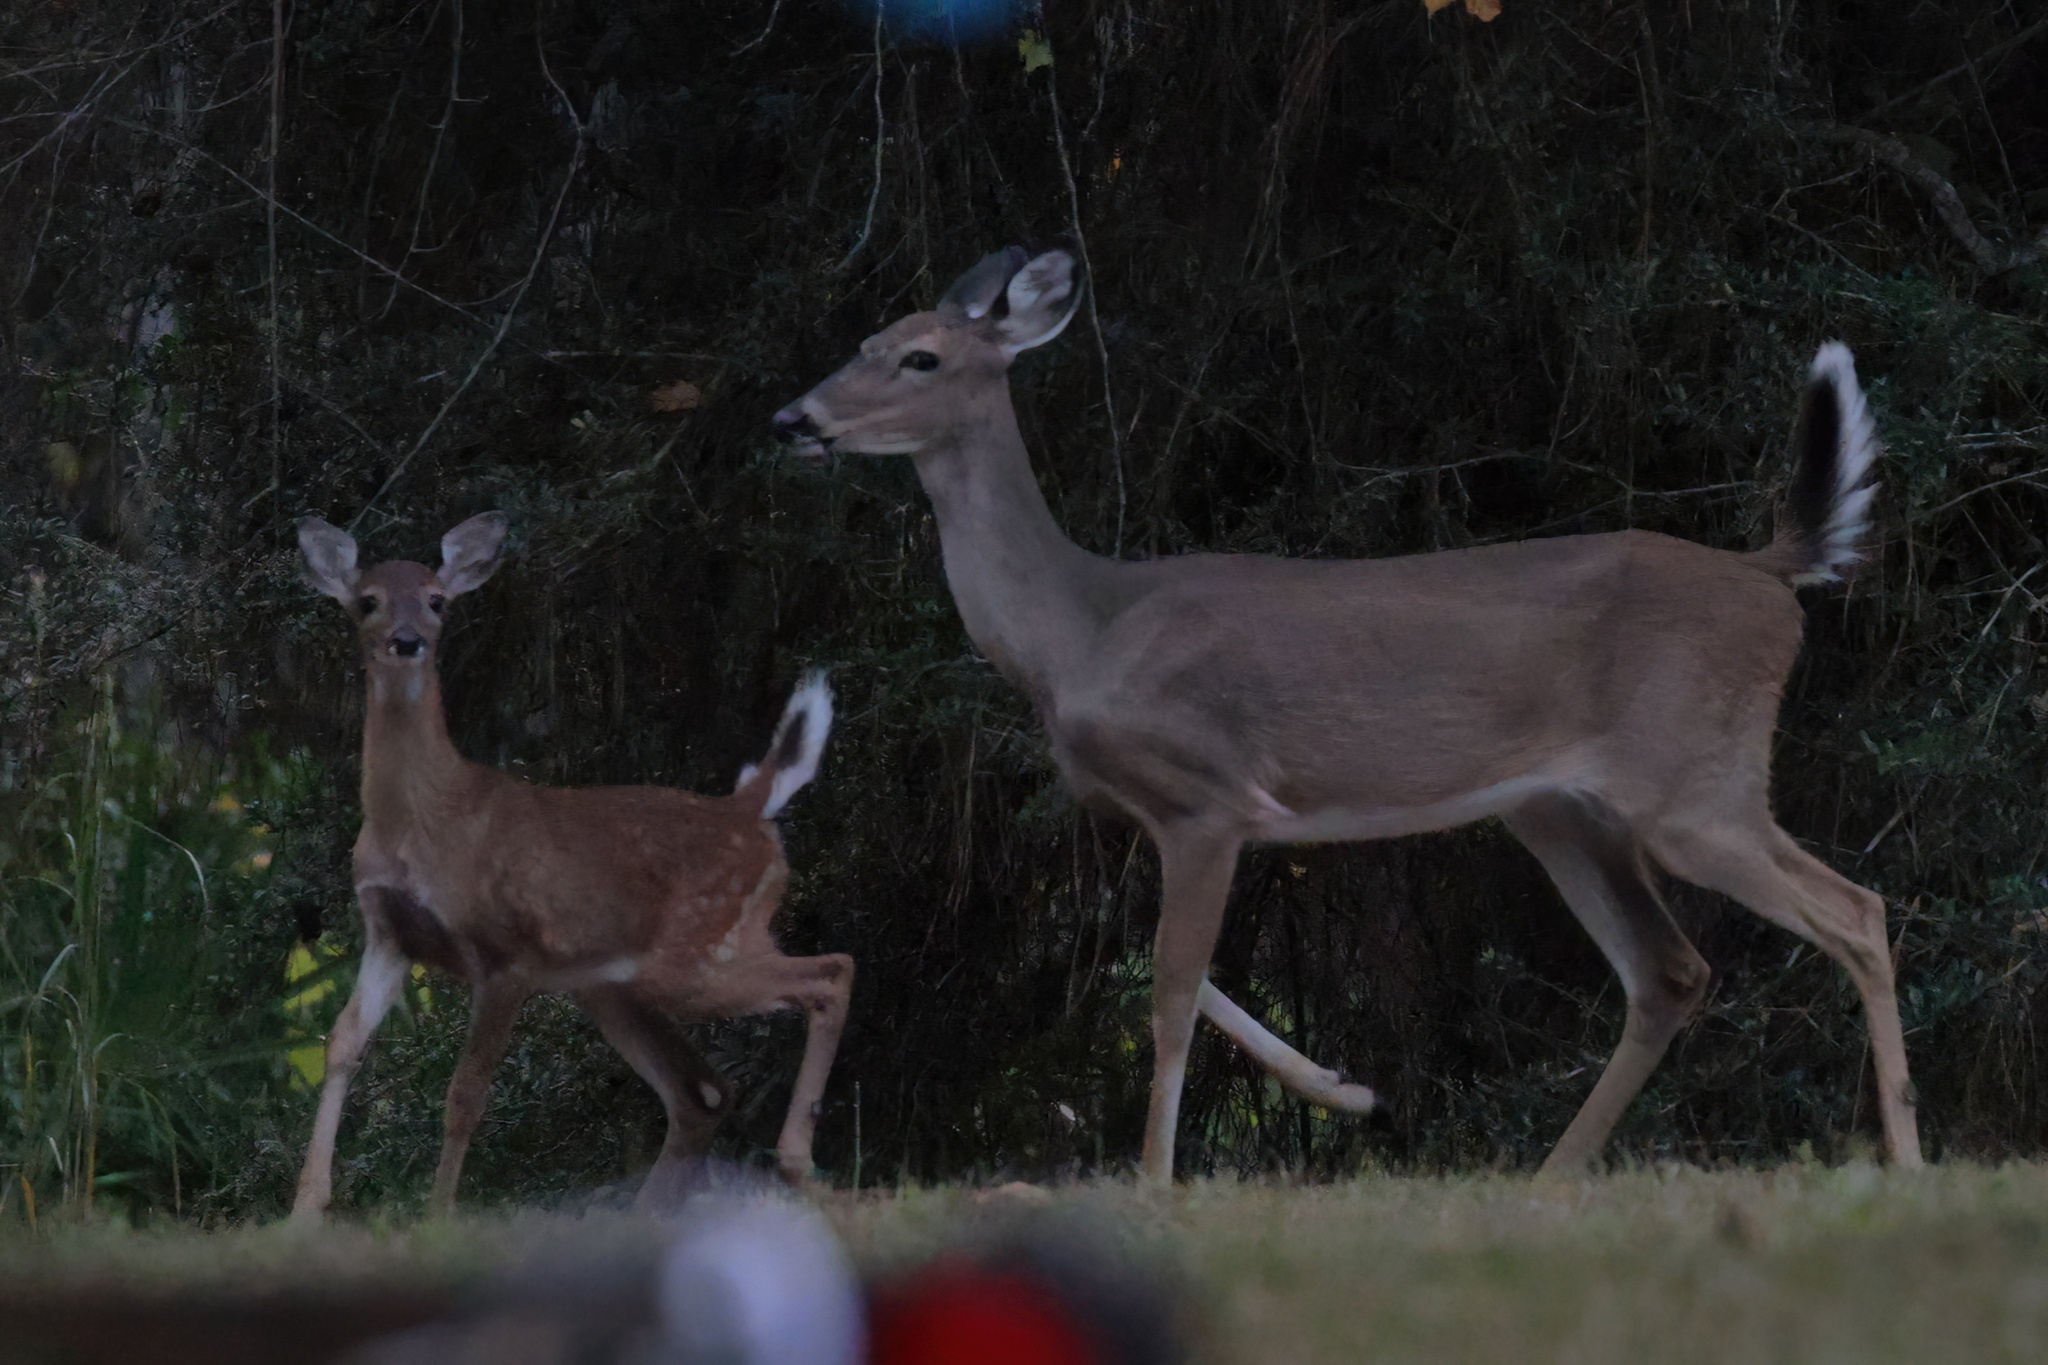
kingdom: Animalia
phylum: Chordata
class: Mammalia
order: Artiodactyla
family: Cervidae
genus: Odocoileus
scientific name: Odocoileus virginianus
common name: White-tailed deer
